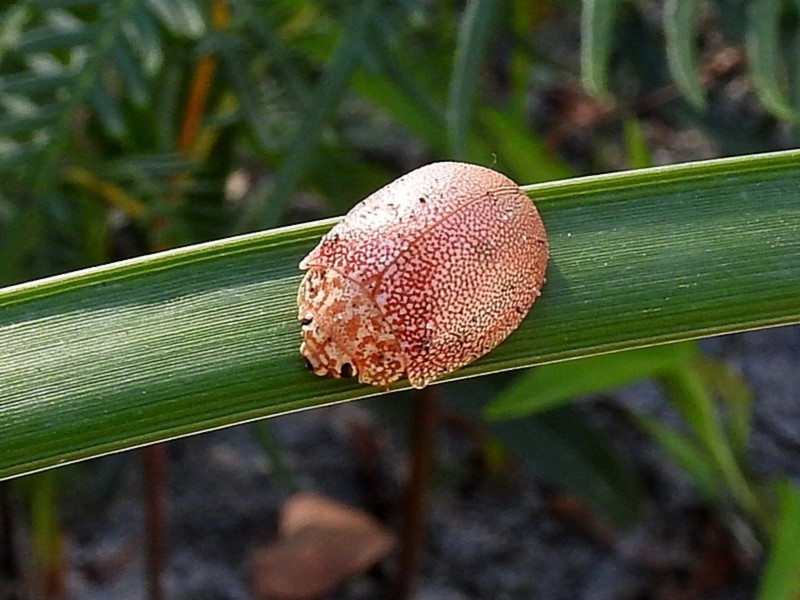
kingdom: Animalia
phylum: Arthropoda
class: Insecta
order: Coleoptera
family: Chrysomelidae
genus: Paropsis
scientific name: Paropsis
